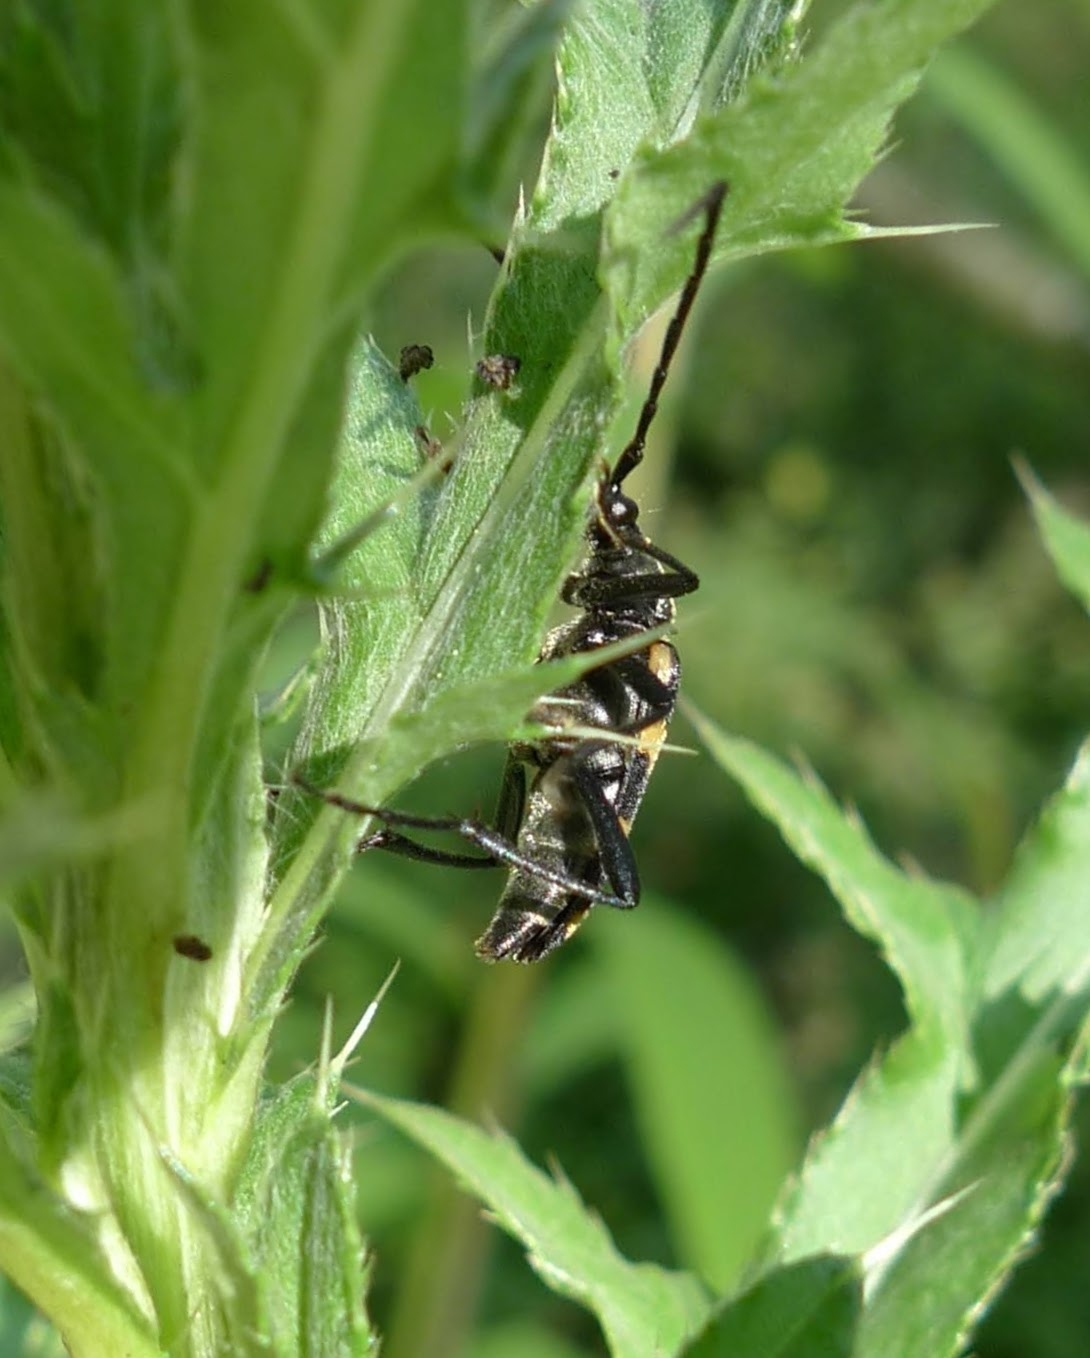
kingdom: Animalia
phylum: Arthropoda
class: Insecta
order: Coleoptera
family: Cerambycidae
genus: Leptura
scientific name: Leptura quadrifasciata
